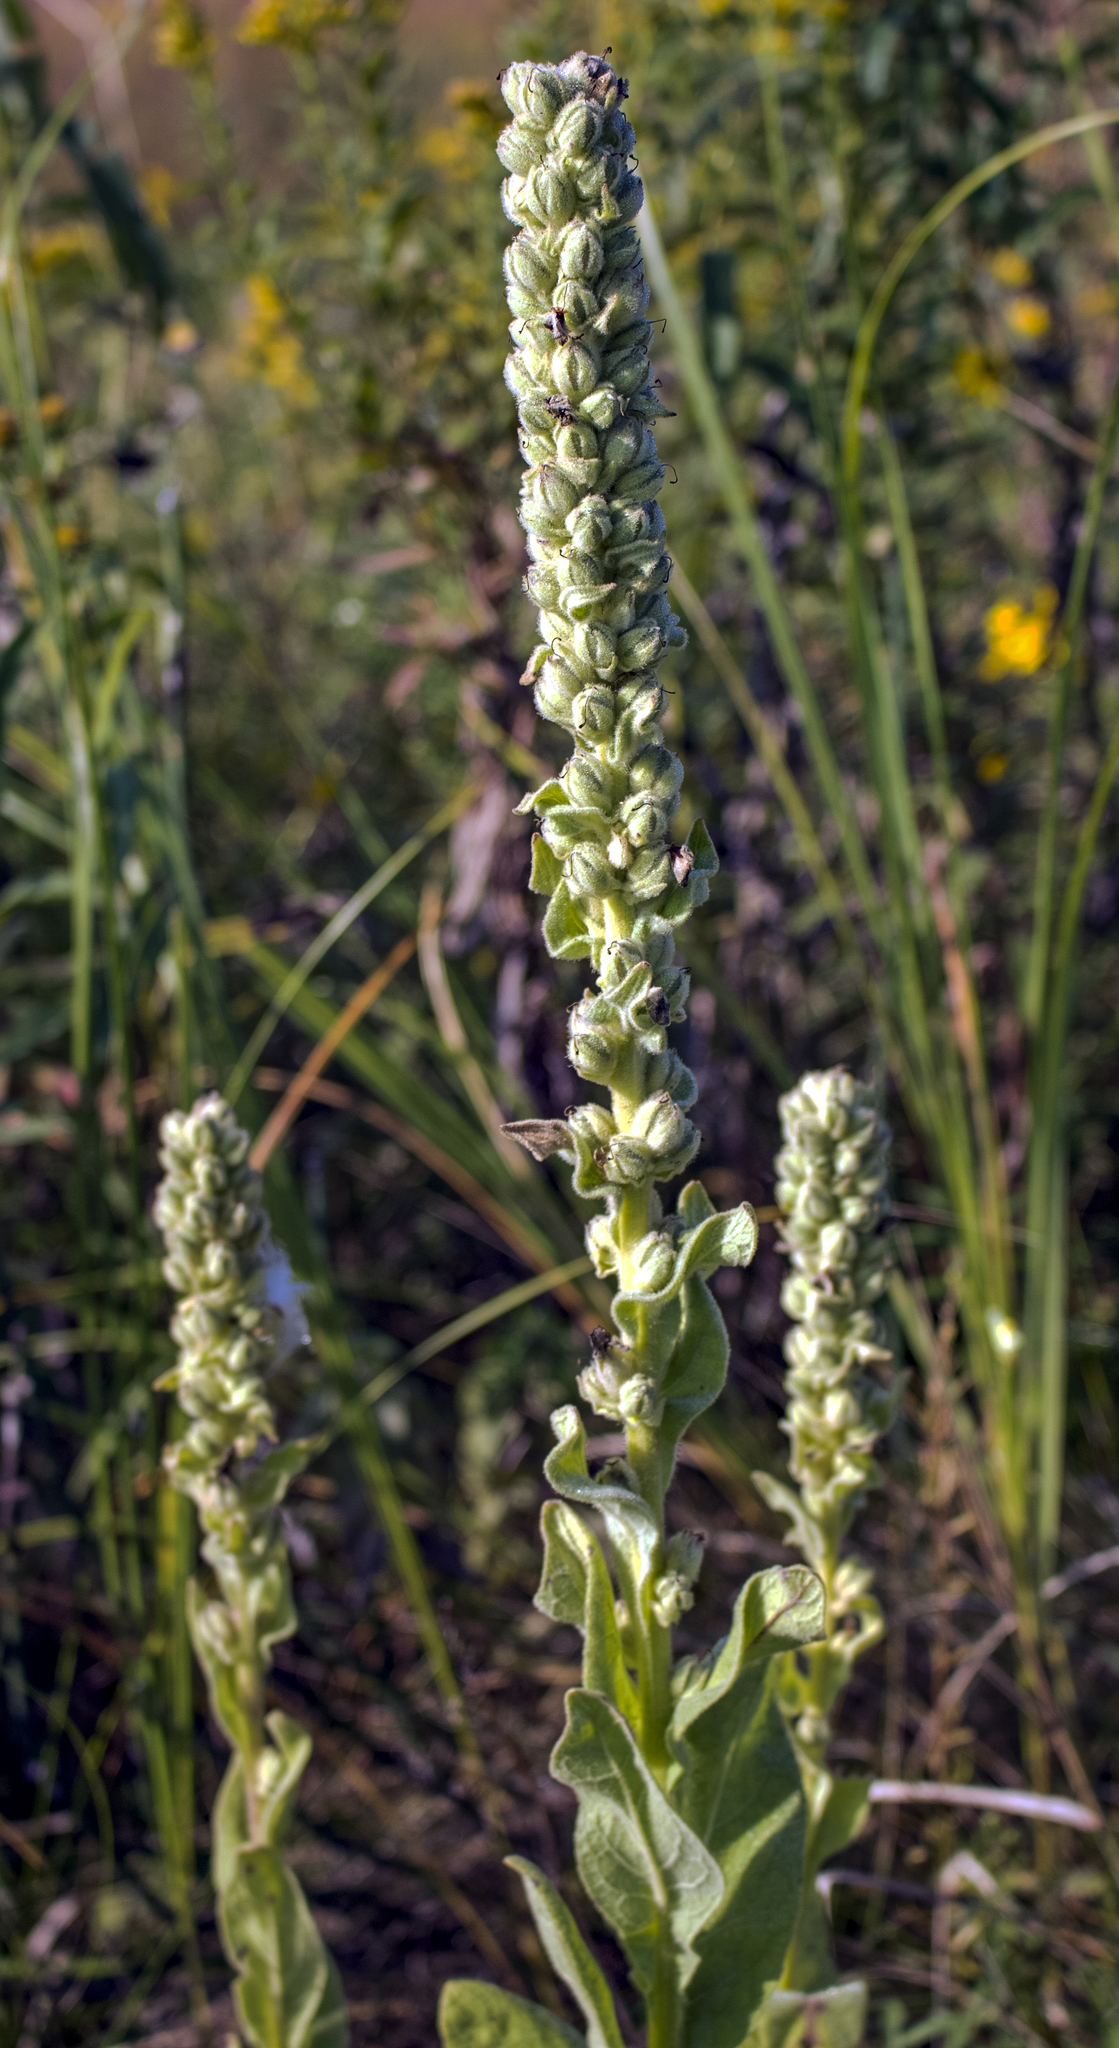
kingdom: Plantae
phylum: Tracheophyta
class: Magnoliopsida
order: Lamiales
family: Scrophulariaceae
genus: Verbascum
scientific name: Verbascum thapsus
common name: Common mullein
